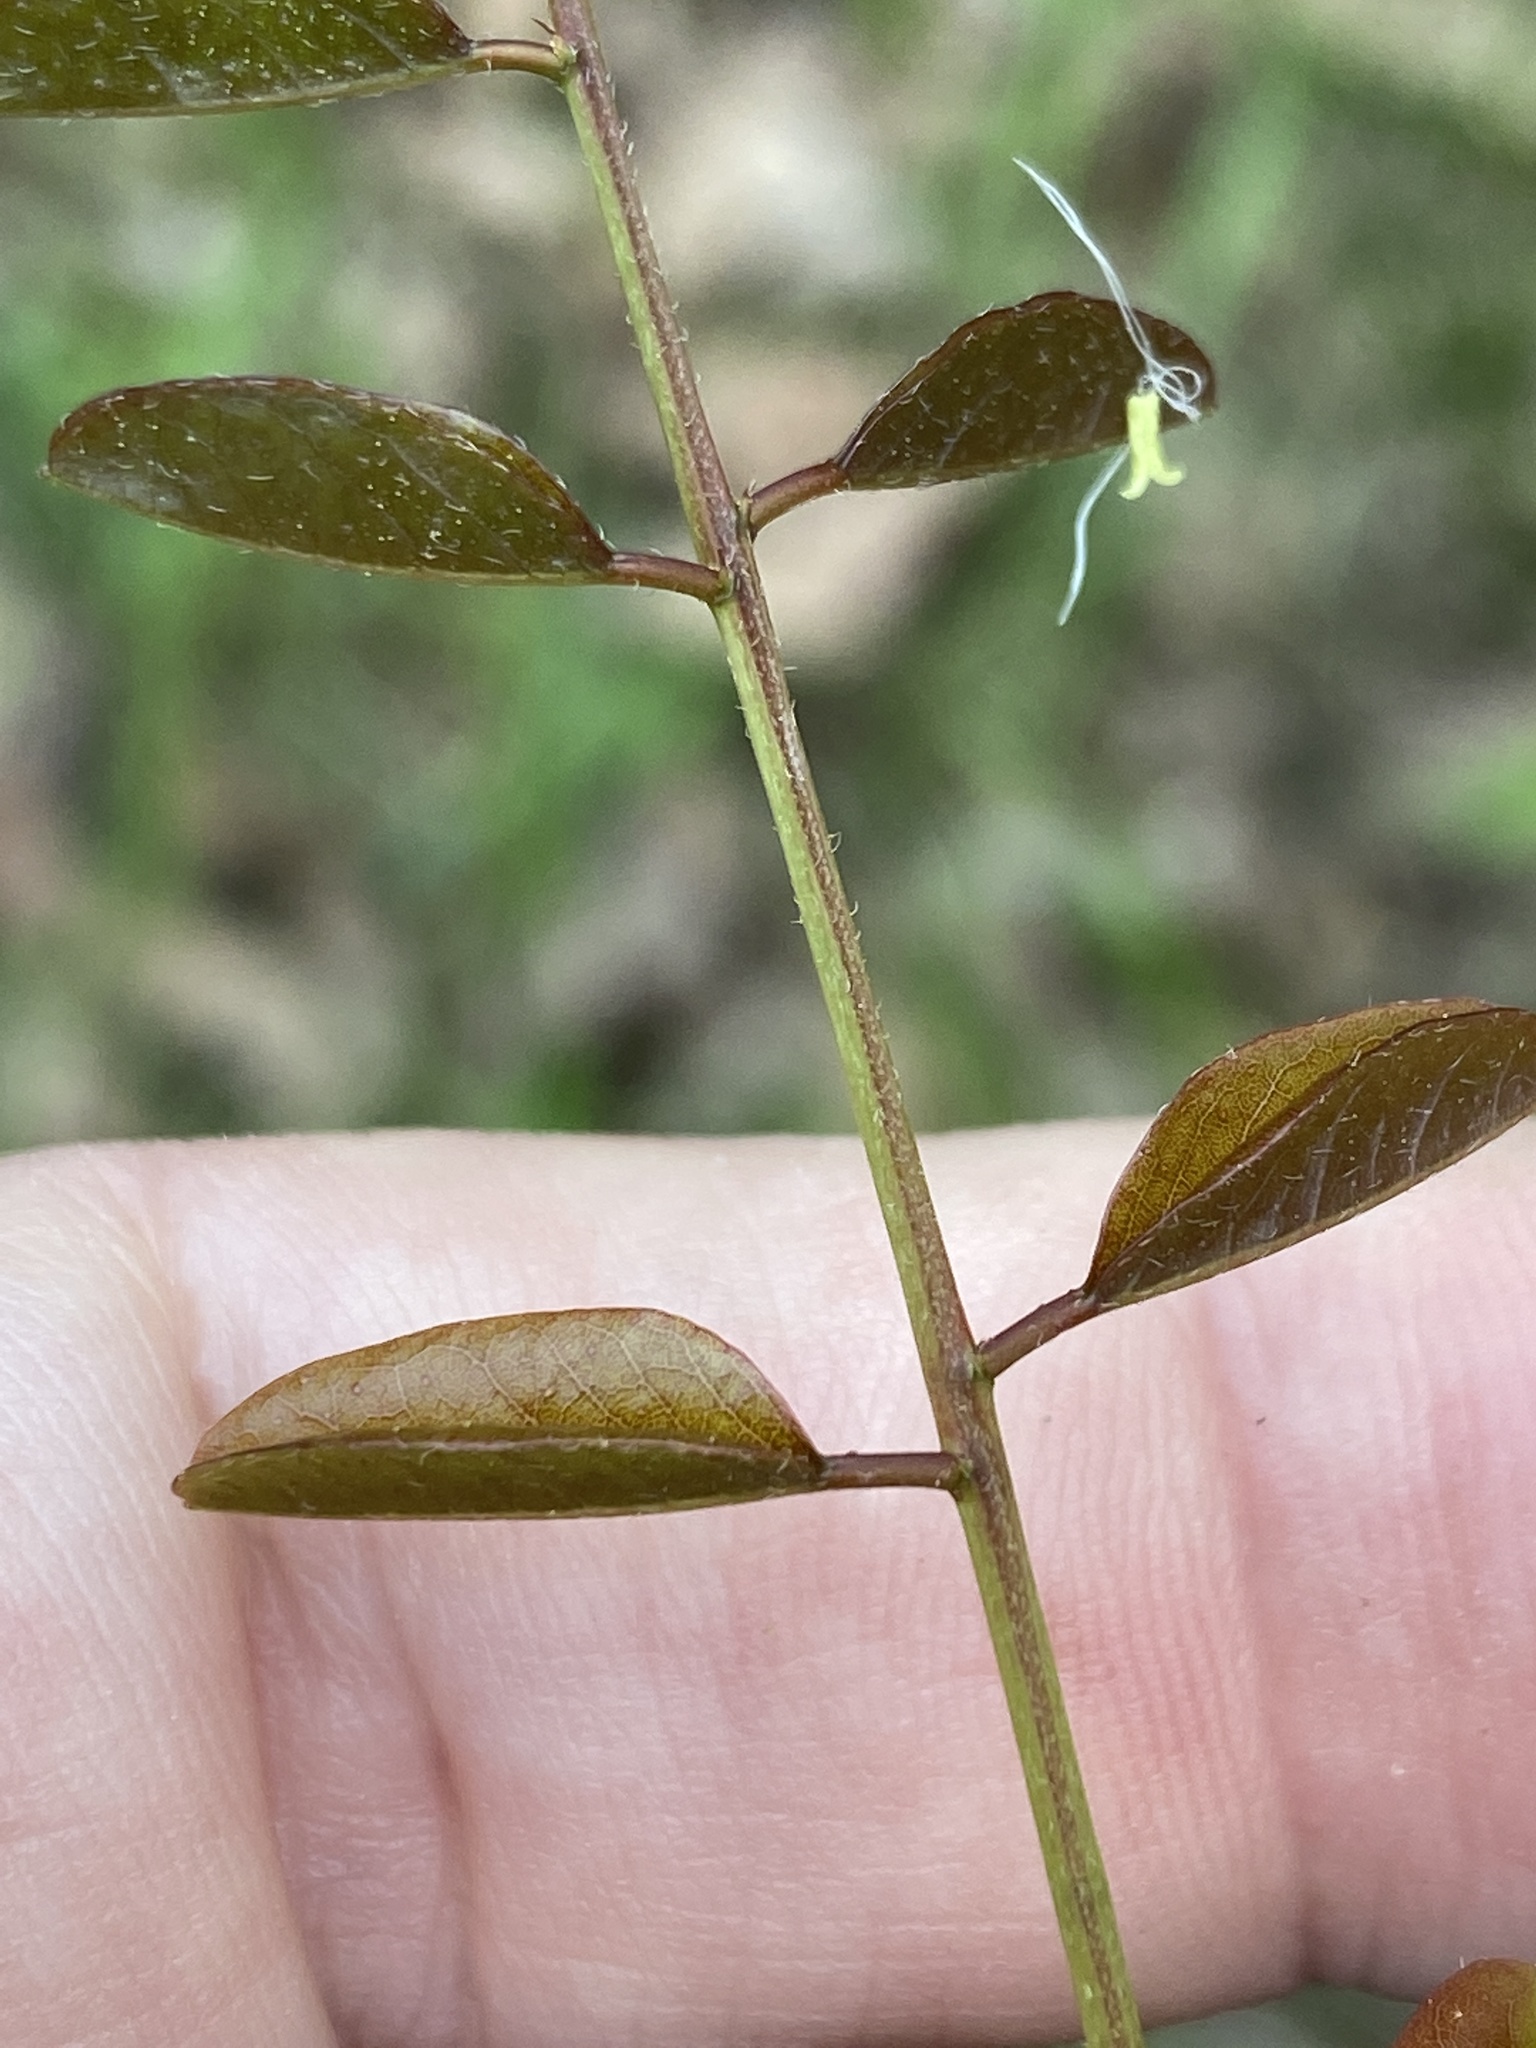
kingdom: Plantae
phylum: Tracheophyta
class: Magnoliopsida
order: Fabales
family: Fabaceae
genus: Amorpha
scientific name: Amorpha glabra
